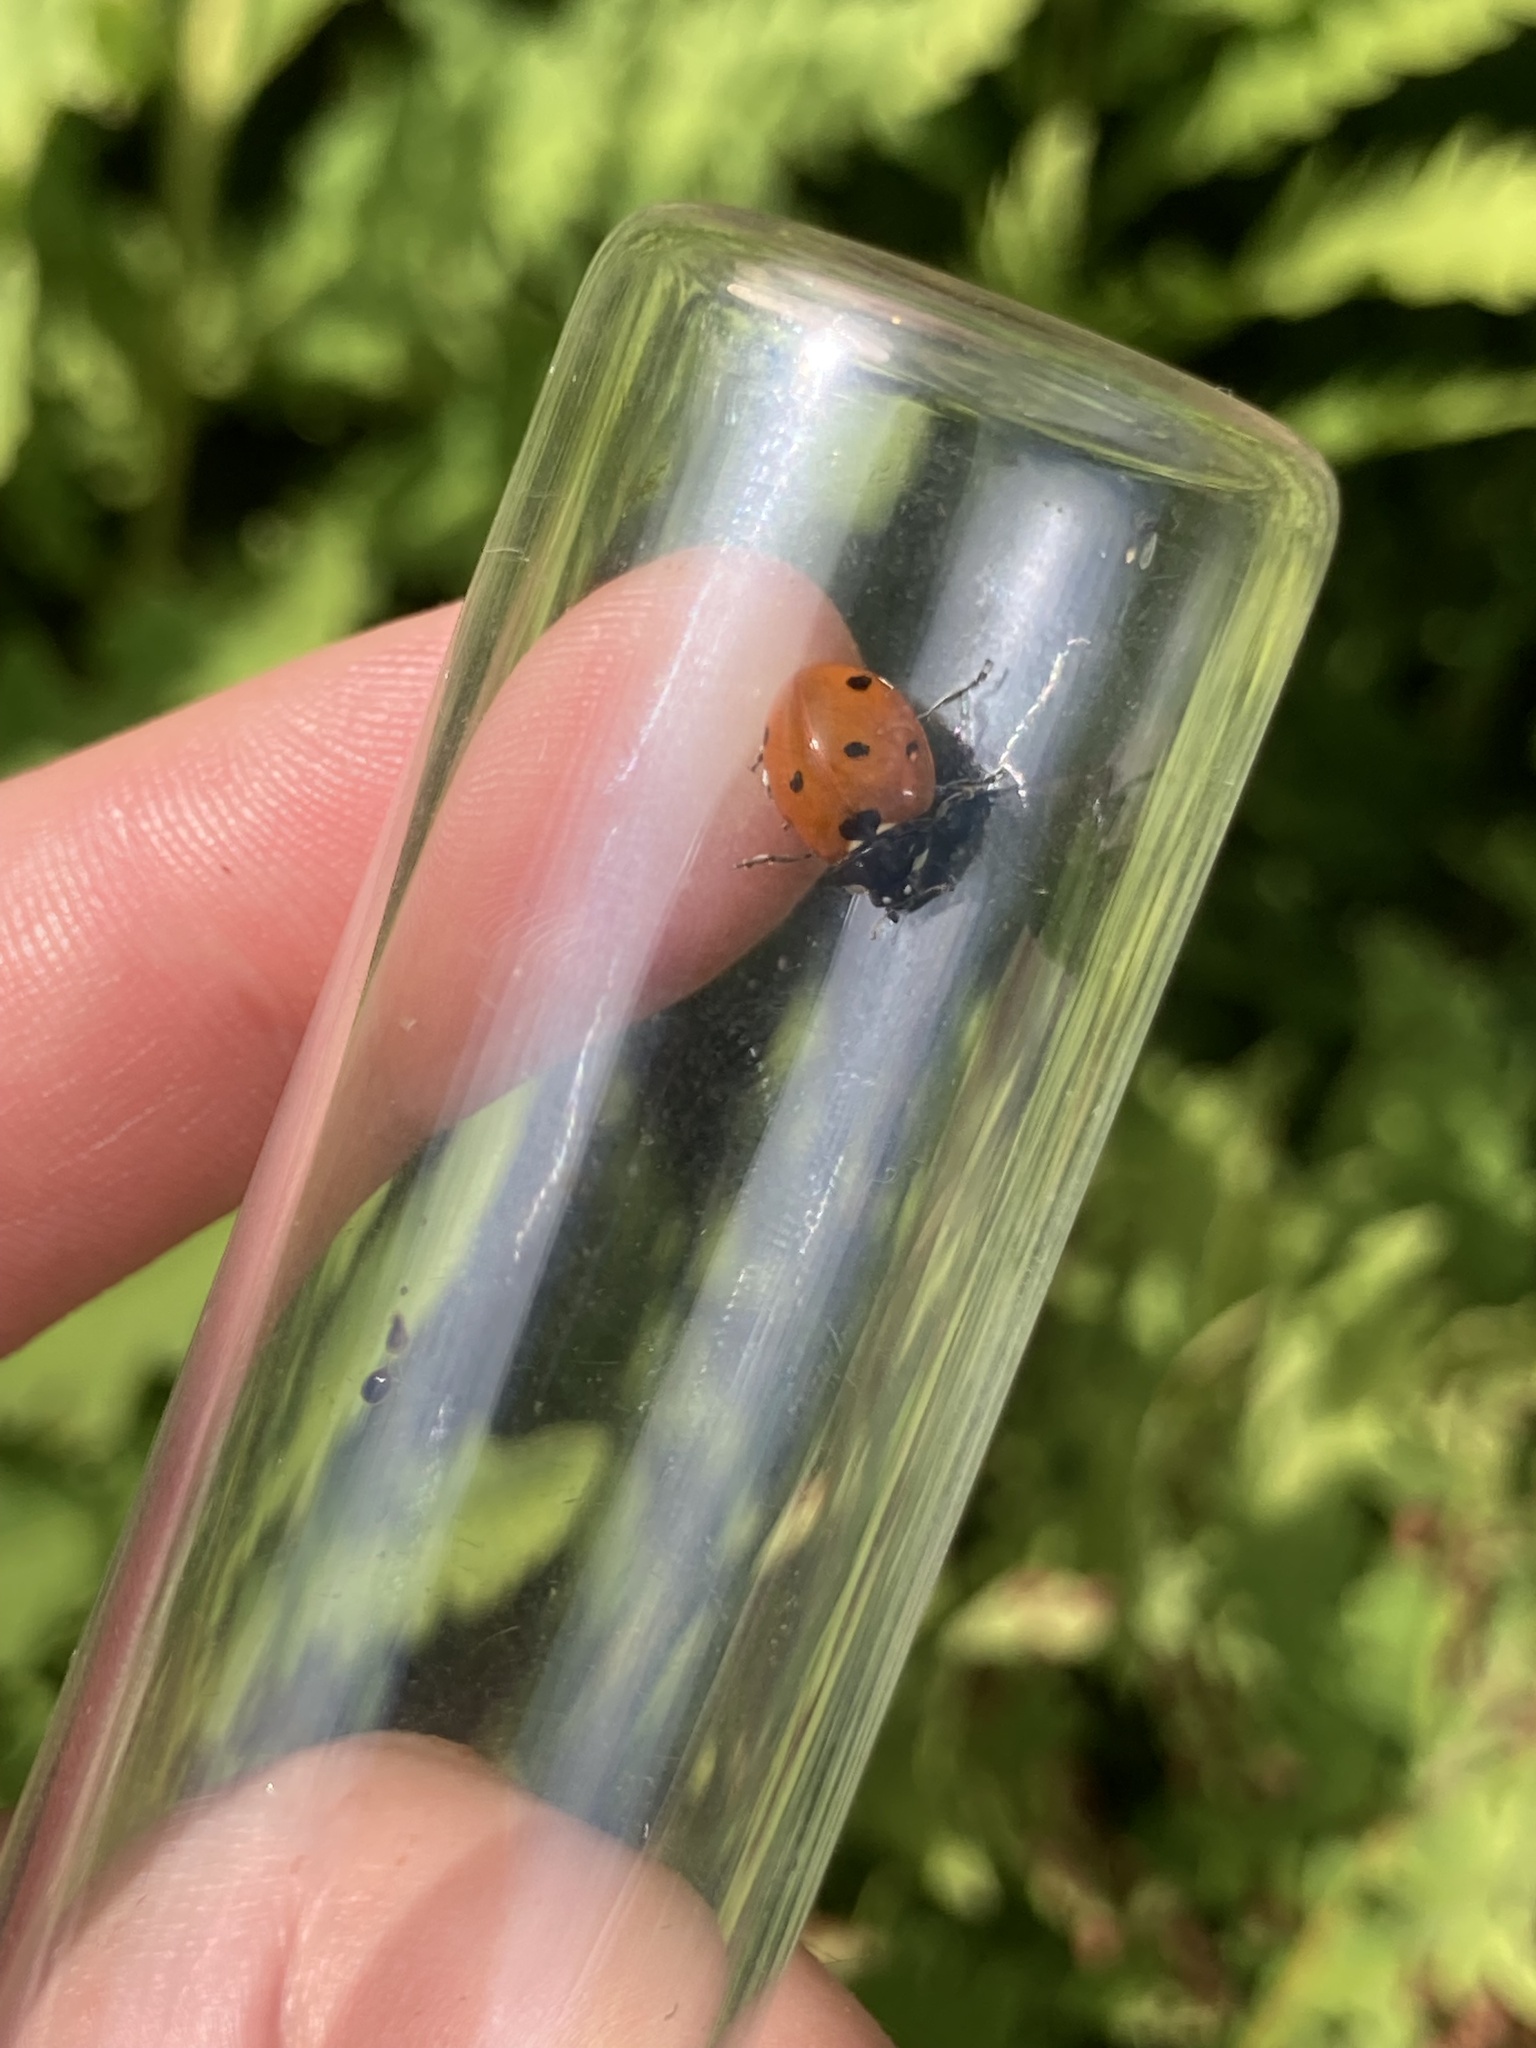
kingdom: Animalia
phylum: Arthropoda
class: Insecta
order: Coleoptera
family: Coccinellidae
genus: Coccinella
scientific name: Coccinella septempunctata
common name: Sevenspotted lady beetle
